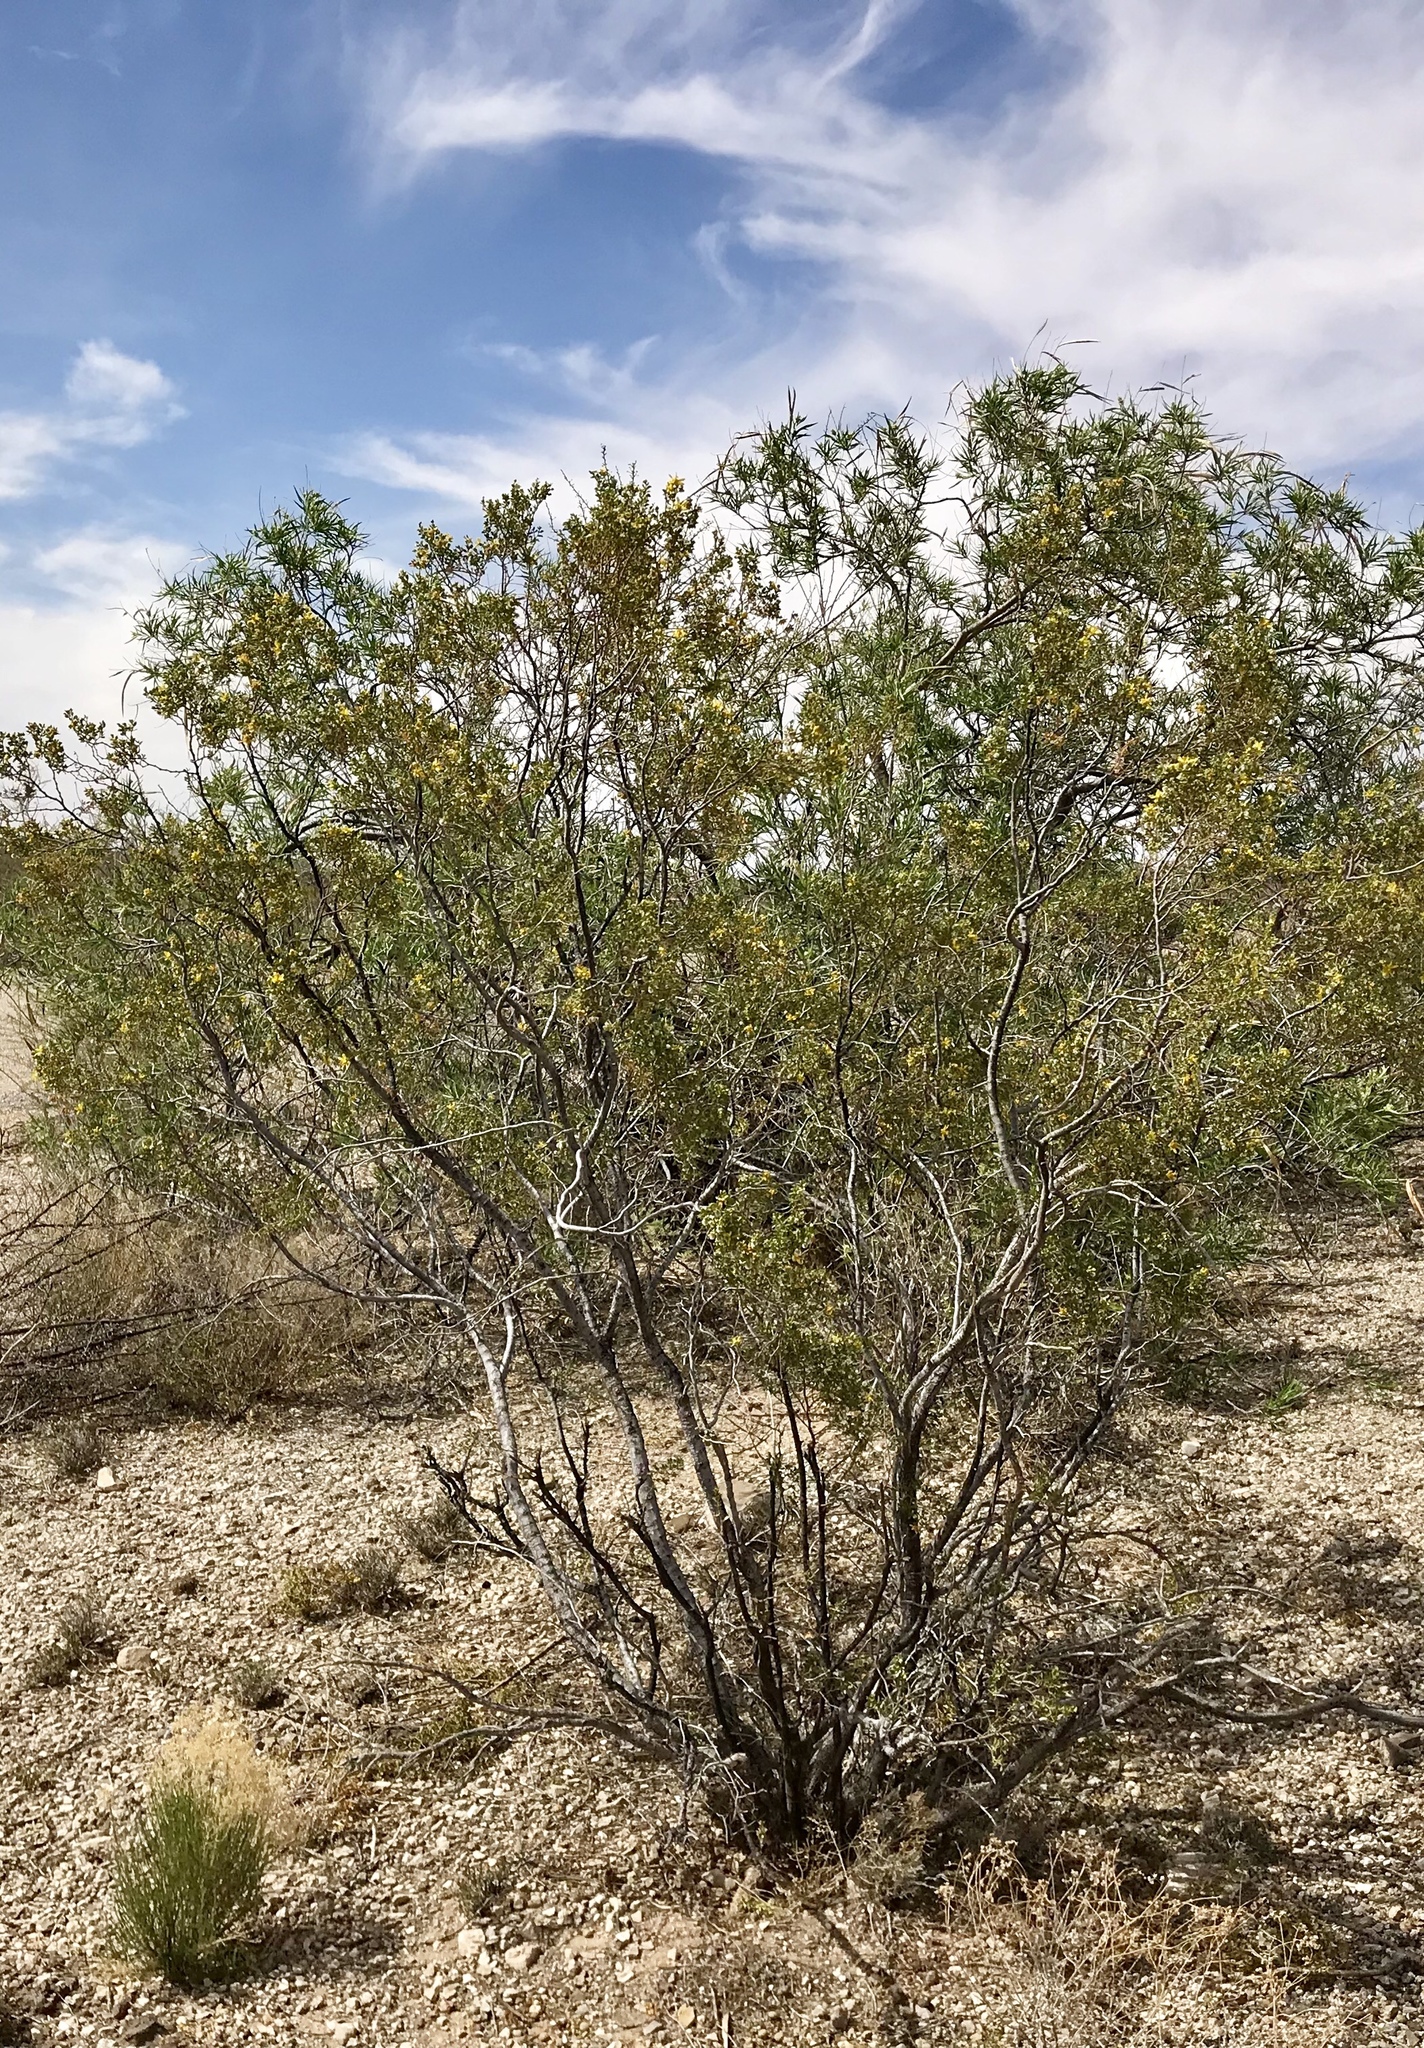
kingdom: Plantae
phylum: Tracheophyta
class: Magnoliopsida
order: Zygophyllales
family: Zygophyllaceae
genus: Larrea
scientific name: Larrea tridentata
